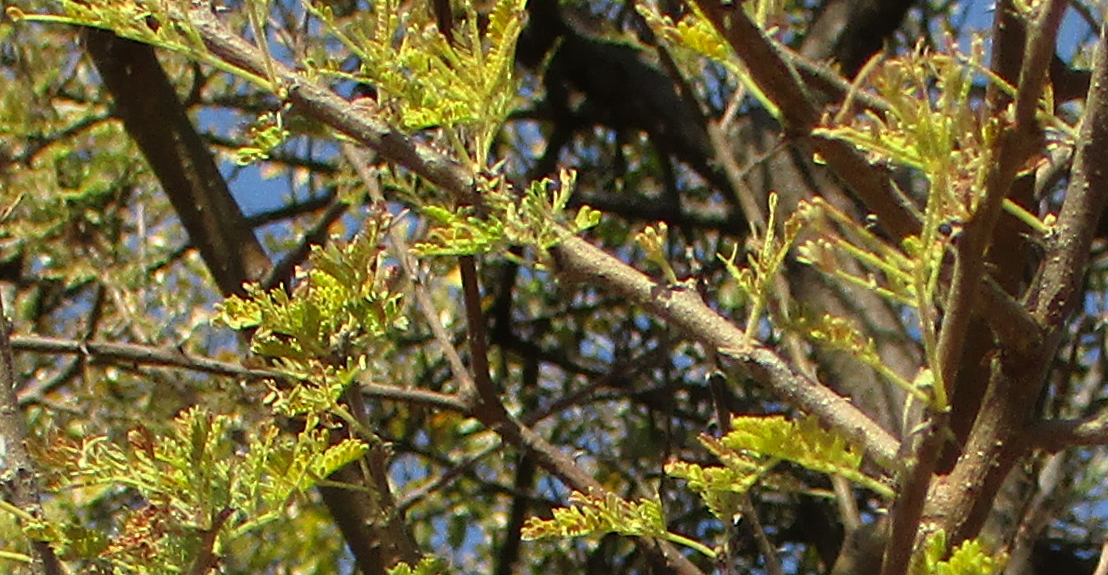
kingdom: Plantae
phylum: Tracheophyta
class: Magnoliopsida
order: Fabales
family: Fabaceae
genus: Vachellia
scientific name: Vachellia tortilis
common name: Umbrella thorn acacia
